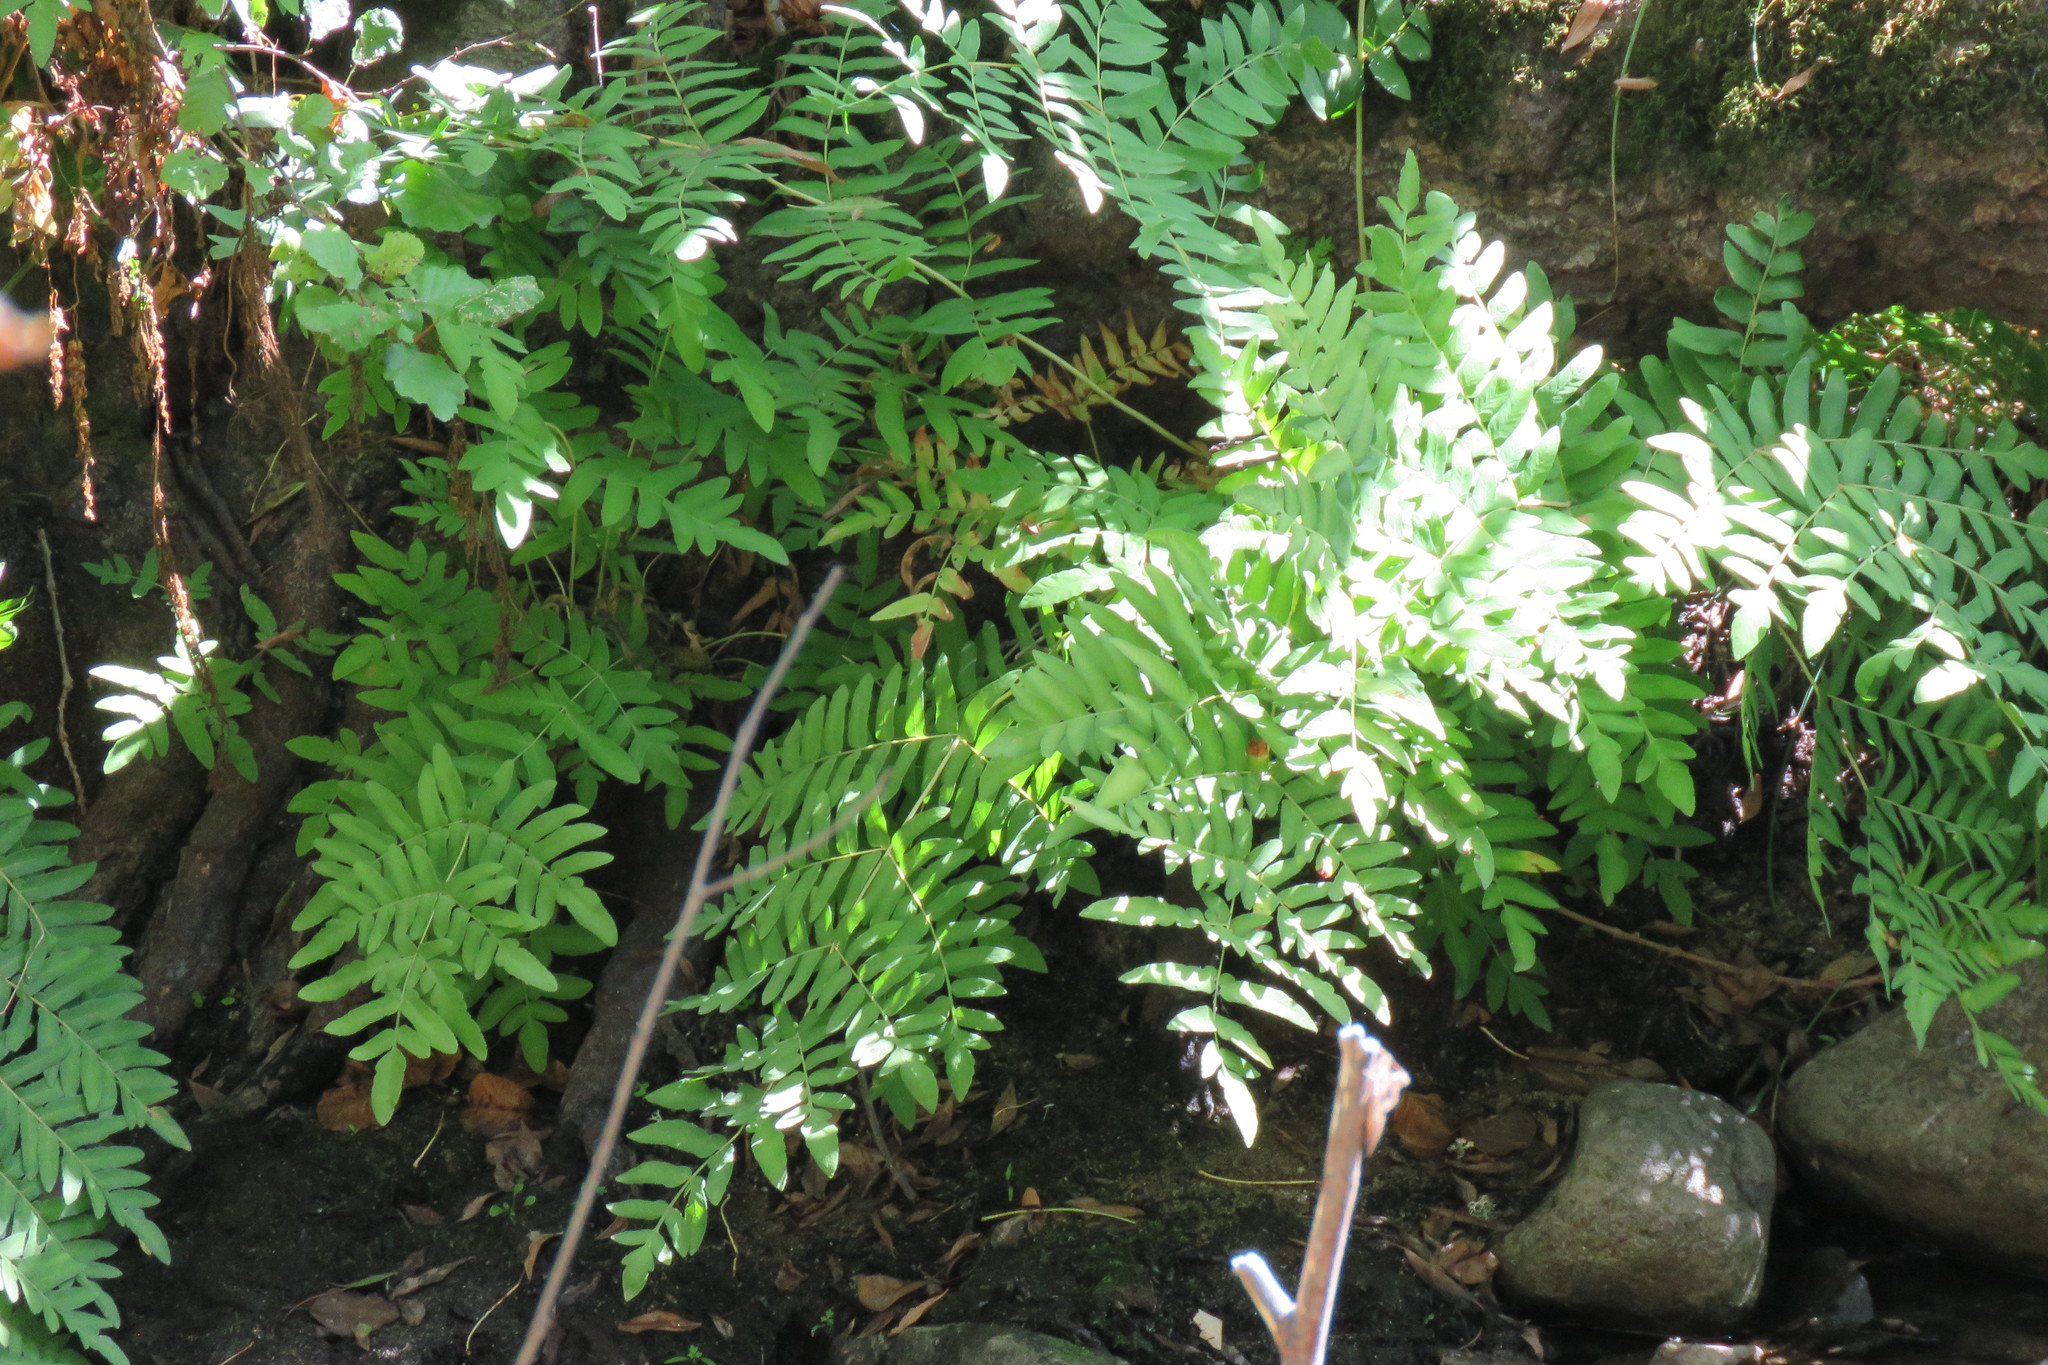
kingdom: Plantae
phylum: Tracheophyta
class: Polypodiopsida
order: Osmundales
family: Osmundaceae
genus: Osmunda
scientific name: Osmunda regalis
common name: Royal fern
